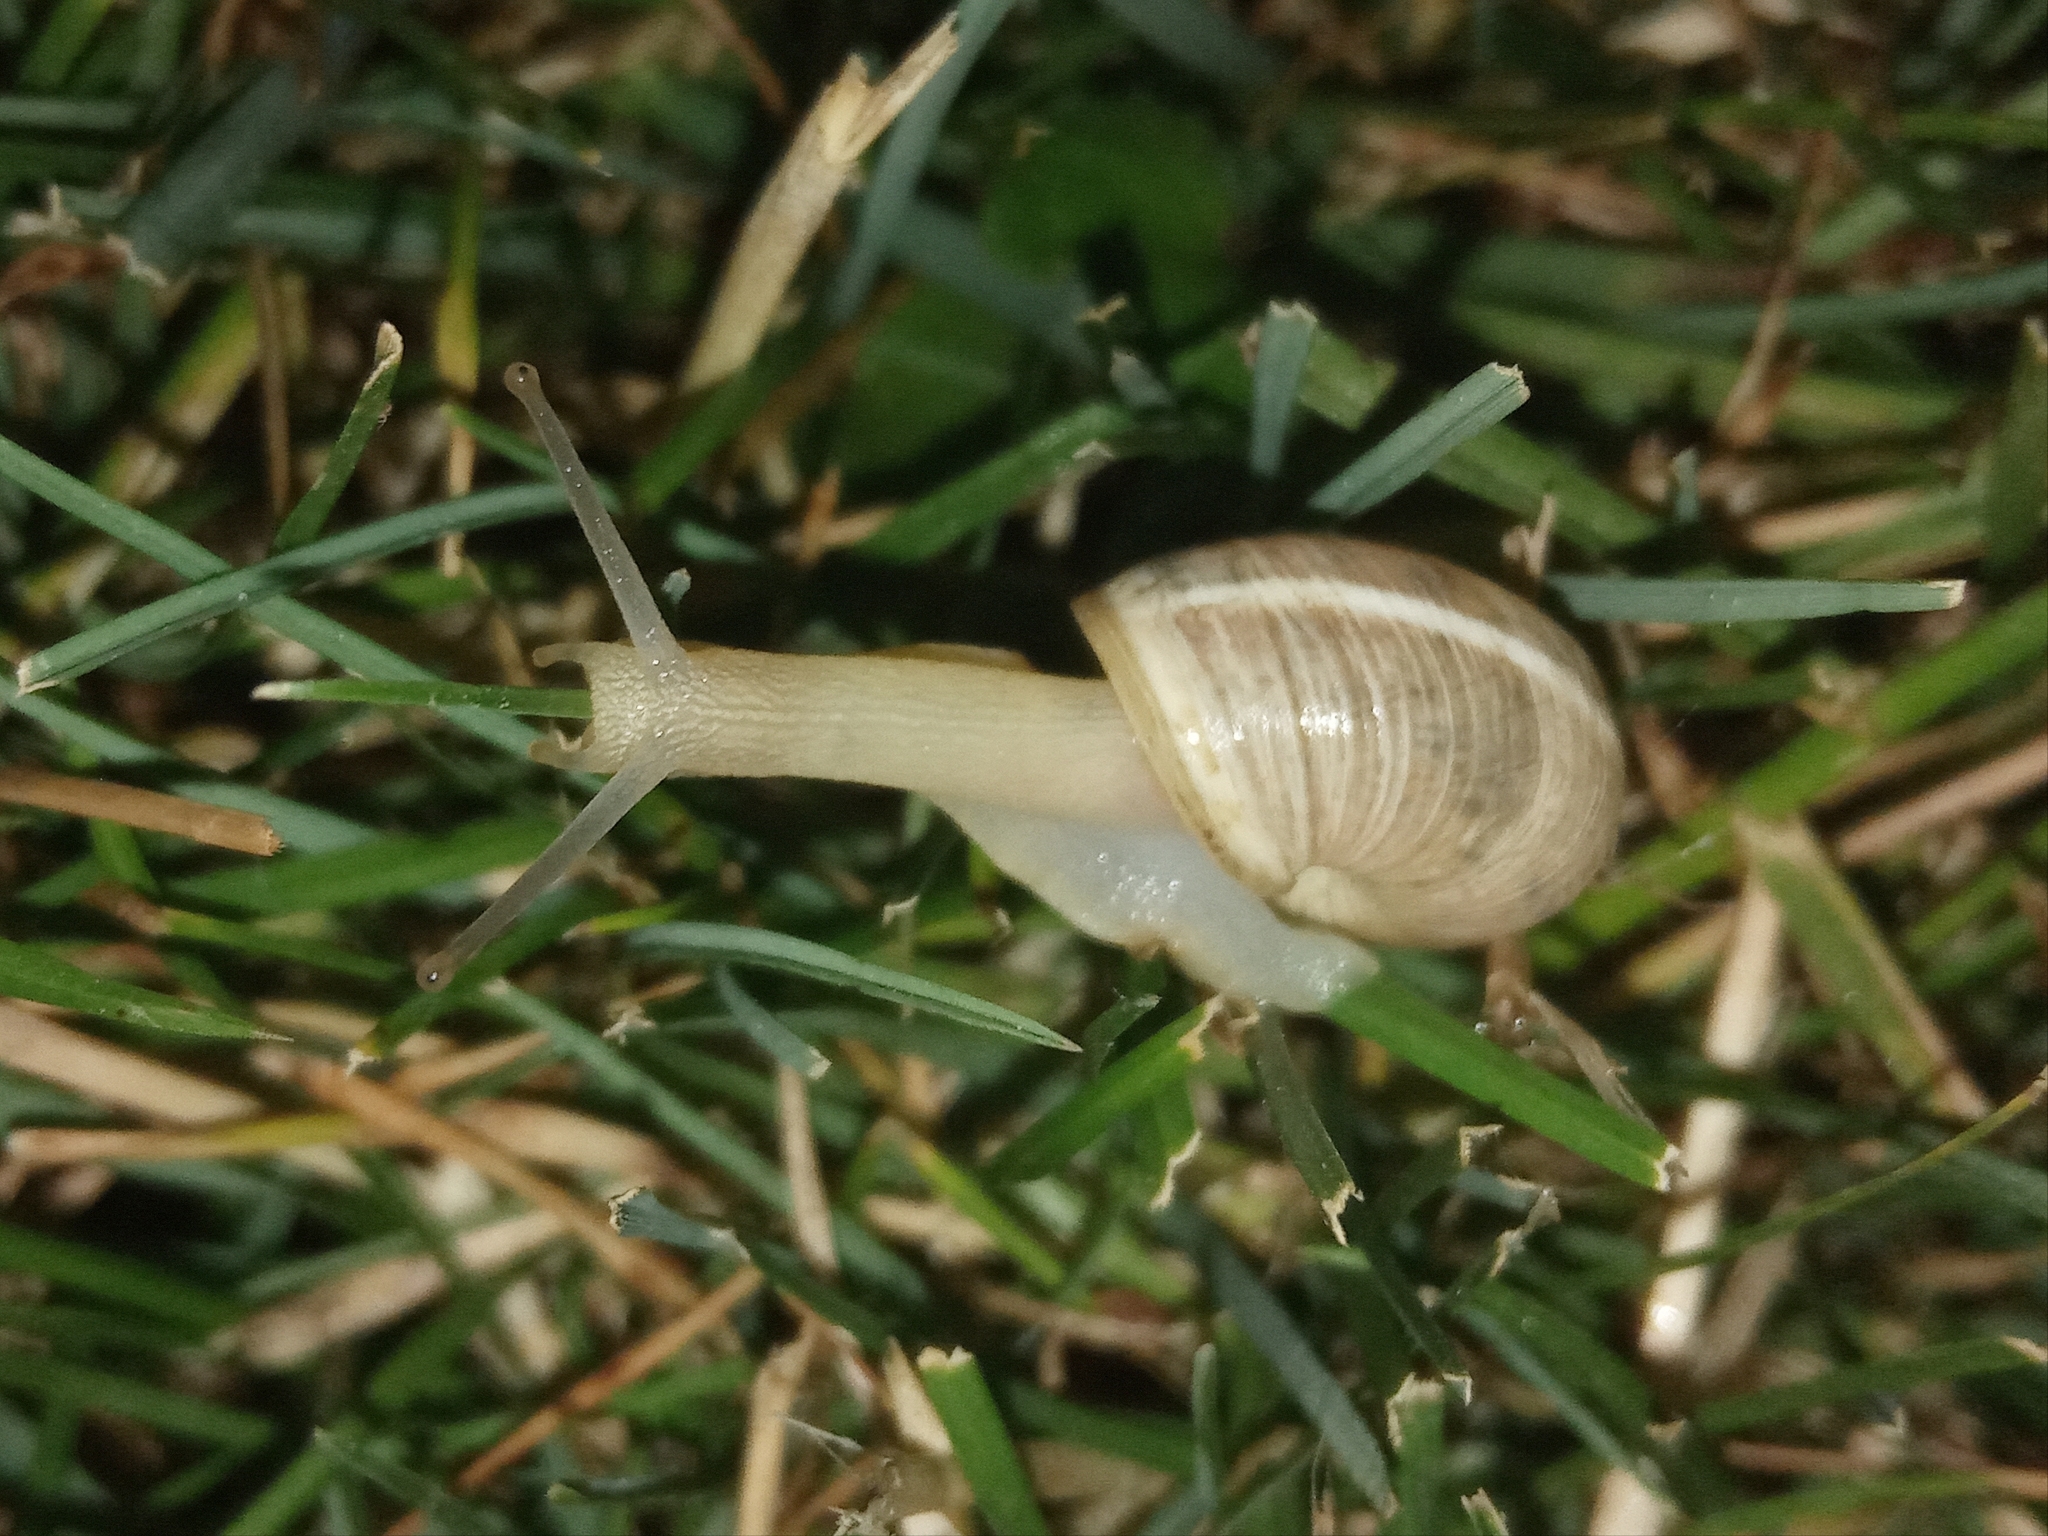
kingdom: Animalia
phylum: Mollusca
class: Gastropoda
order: Stylommatophora
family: Hygromiidae
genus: Harmozica
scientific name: Harmozica ravergiensis
